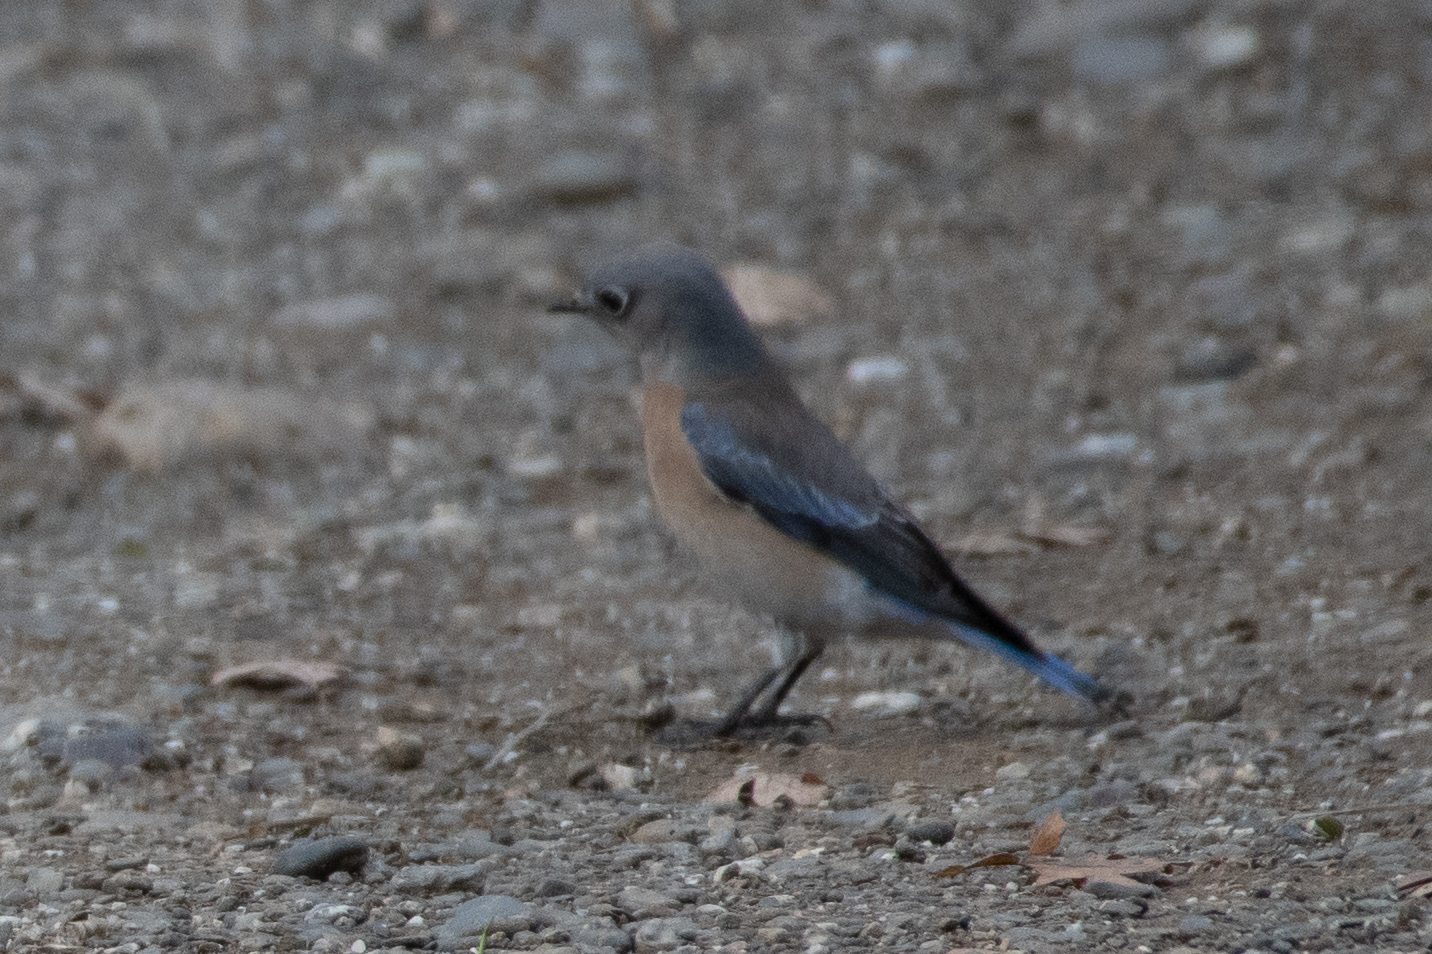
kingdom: Animalia
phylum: Chordata
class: Aves
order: Passeriformes
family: Turdidae
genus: Sialia
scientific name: Sialia mexicana
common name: Western bluebird
